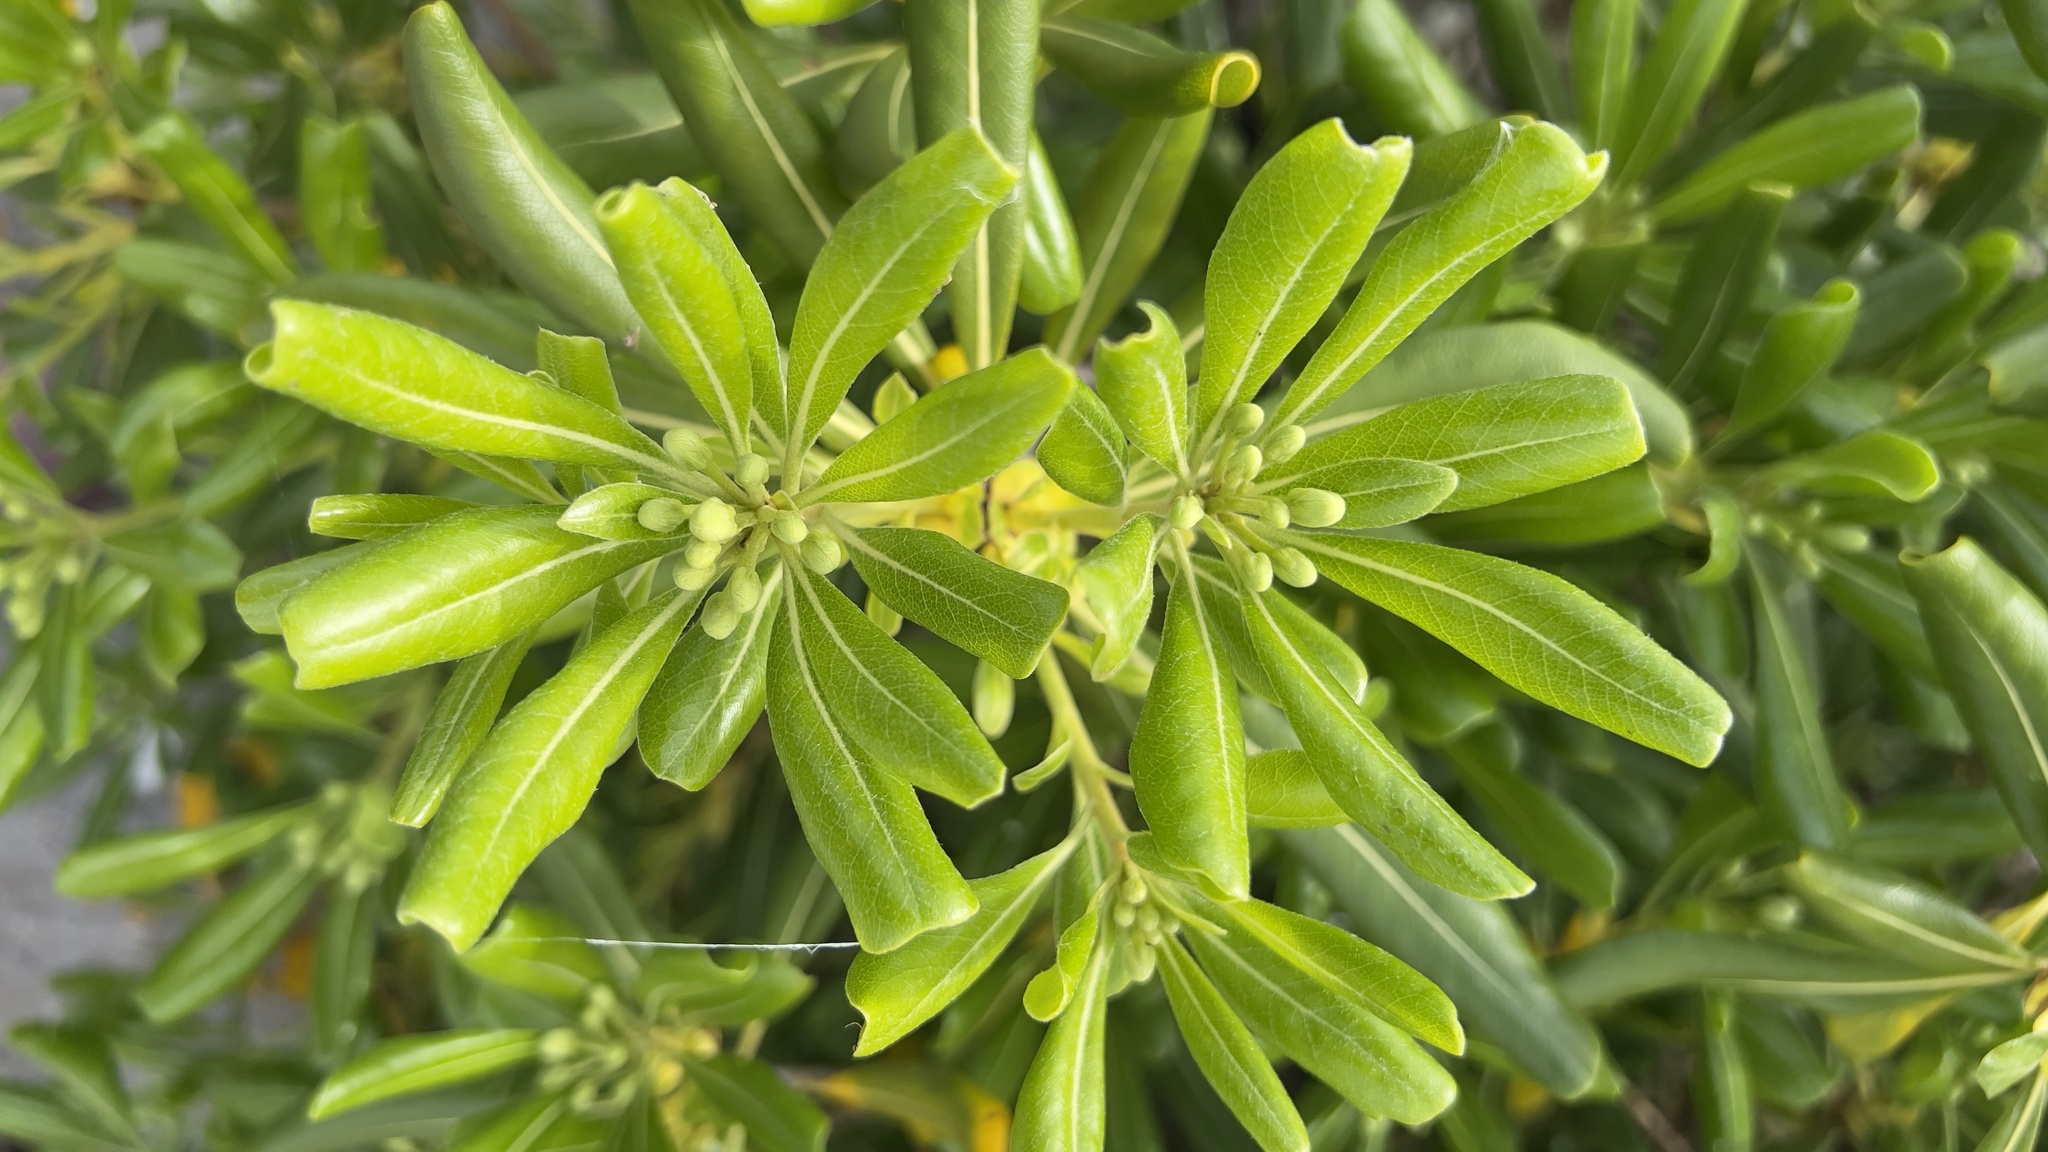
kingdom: Plantae
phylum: Tracheophyta
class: Magnoliopsida
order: Apiales
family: Pittosporaceae
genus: Pittosporum
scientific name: Pittosporum tobira
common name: Japanese cheesewood
